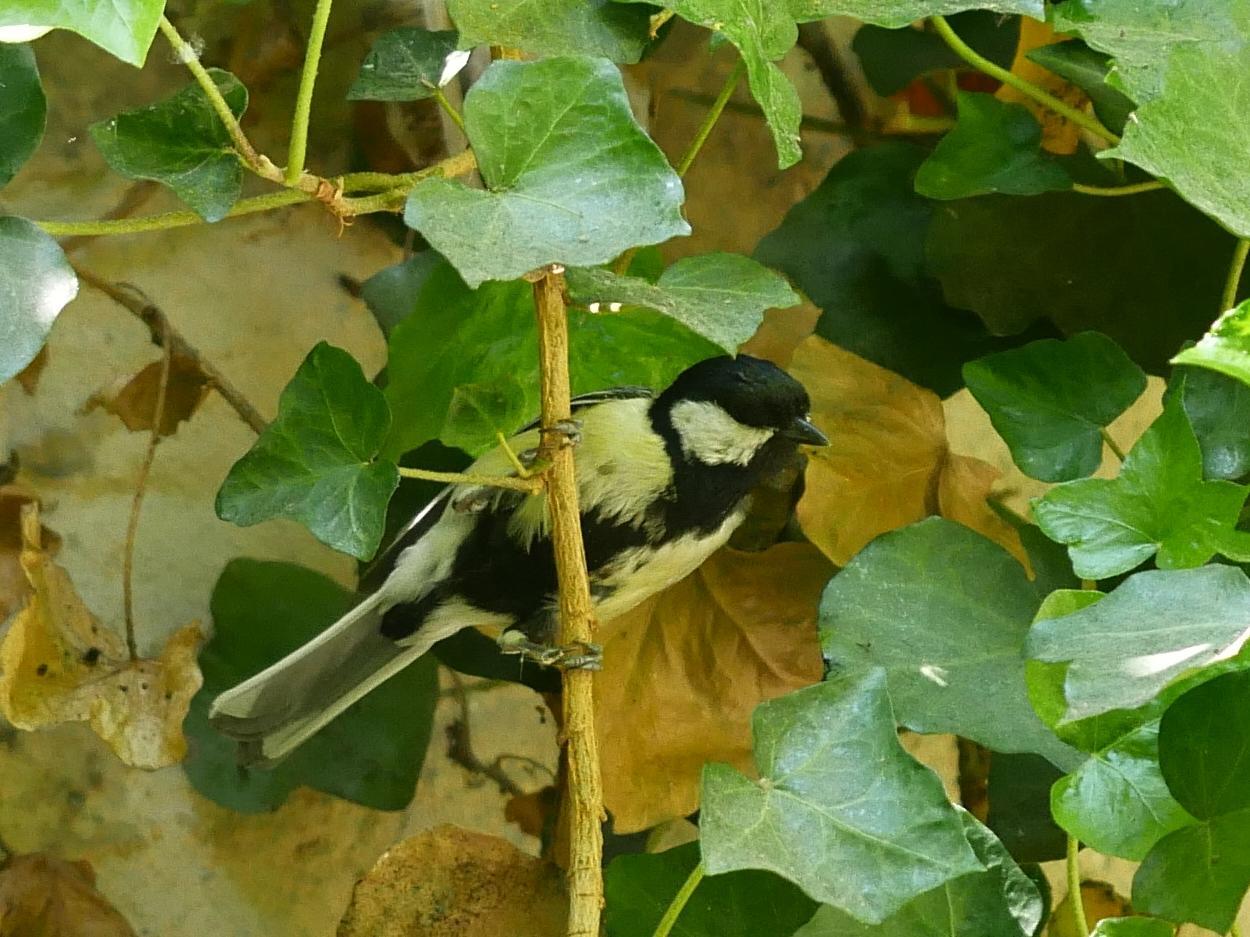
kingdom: Animalia
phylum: Chordata
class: Aves
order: Passeriformes
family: Paridae
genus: Parus
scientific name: Parus major
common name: Great tit
